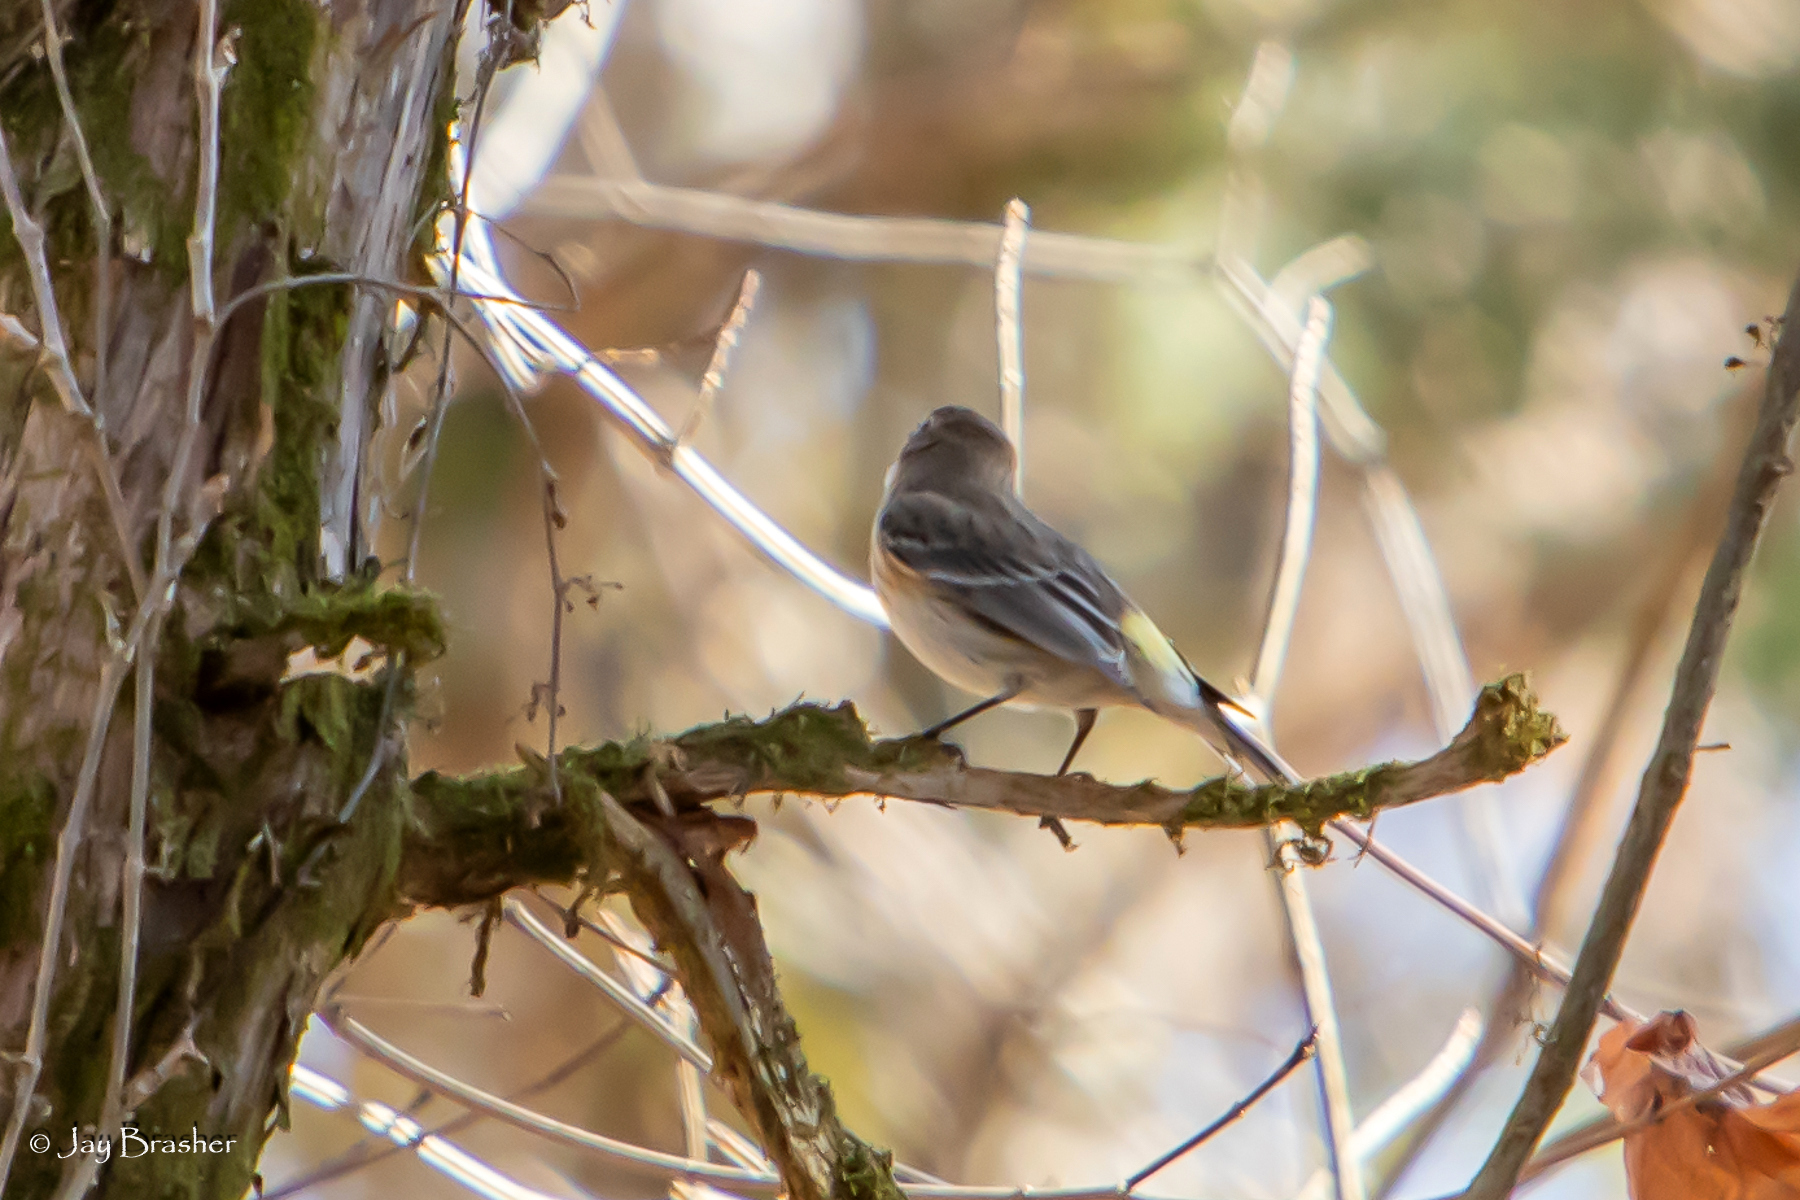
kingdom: Animalia
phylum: Chordata
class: Aves
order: Passeriformes
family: Parulidae
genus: Setophaga
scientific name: Setophaga coronata
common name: Myrtle warbler
